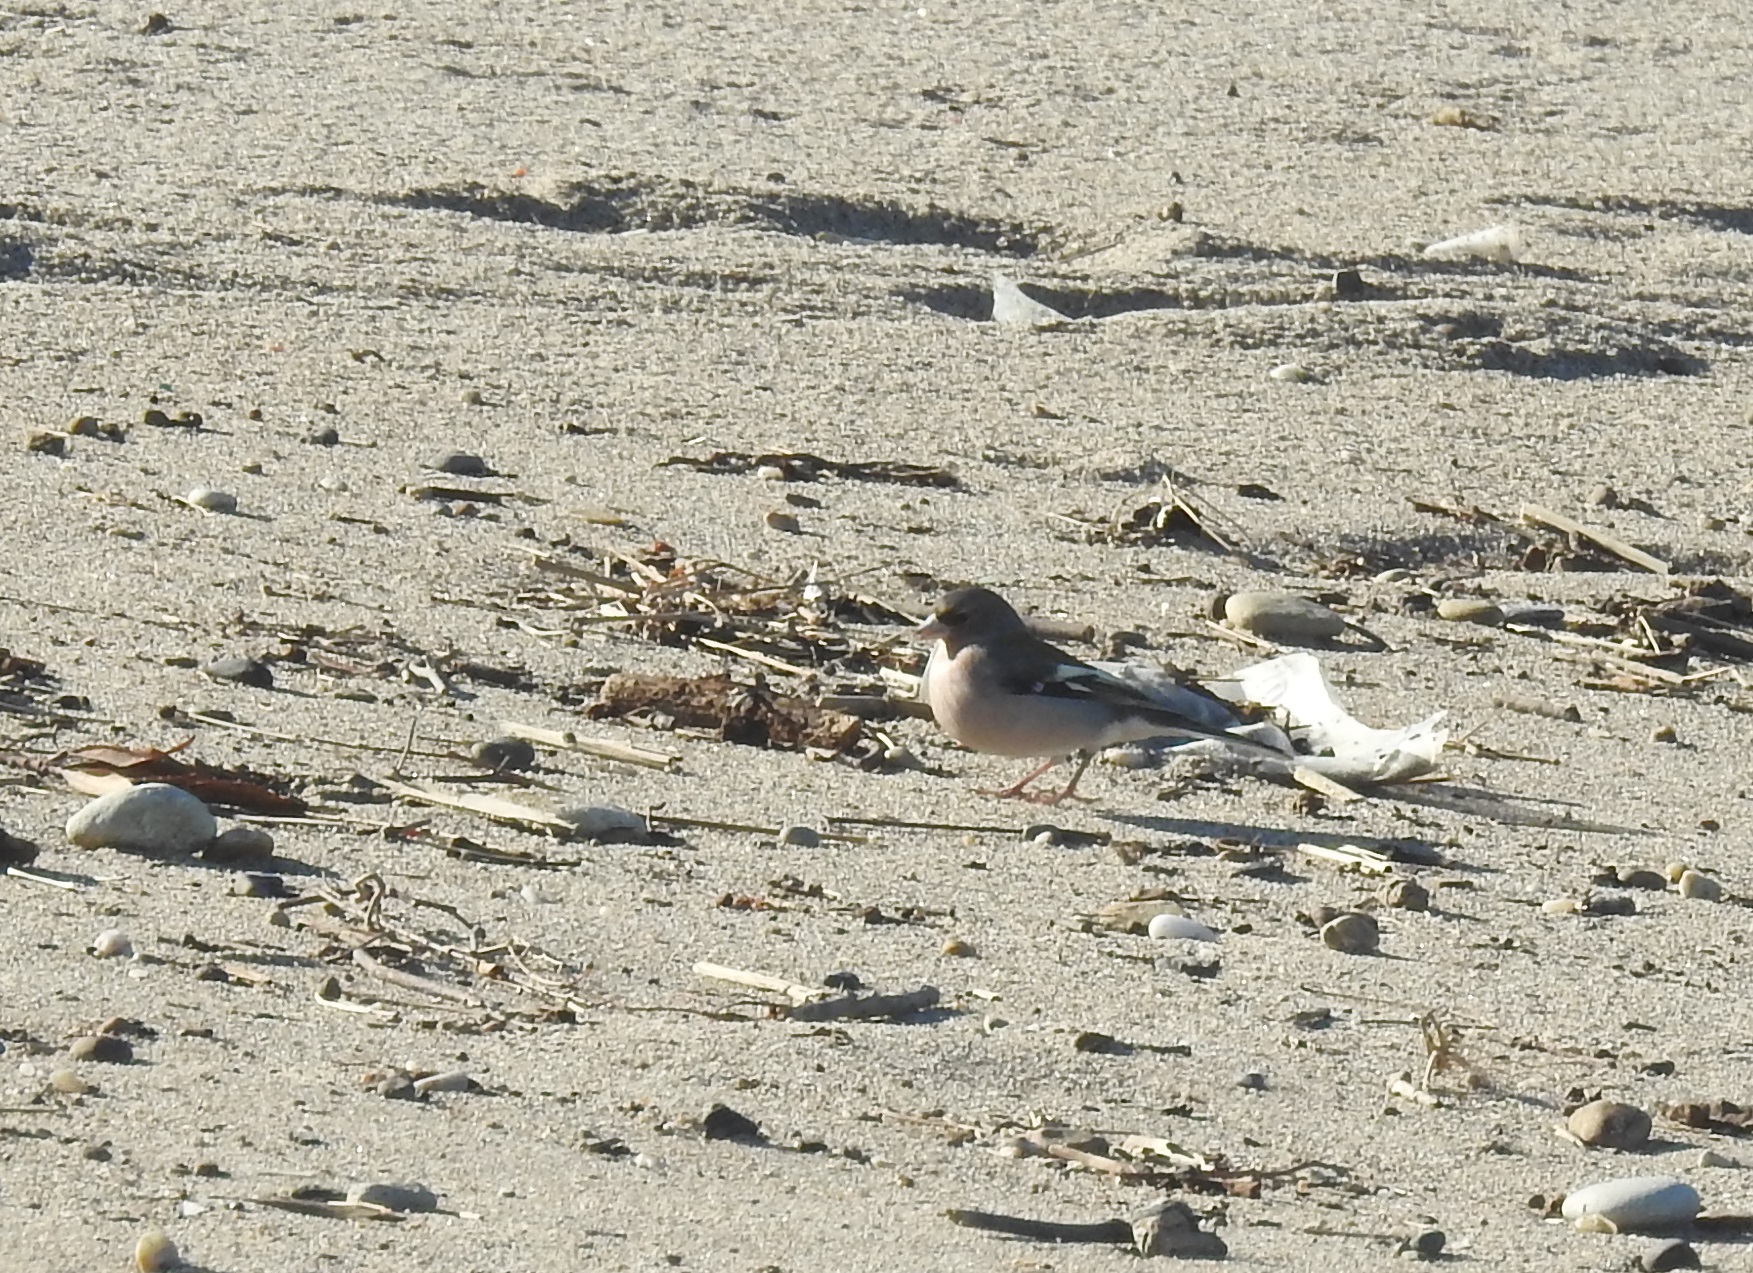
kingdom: Animalia
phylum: Chordata
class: Aves
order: Passeriformes
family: Fringillidae
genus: Fringilla
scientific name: Fringilla spodiogenys
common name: African chaffinch
